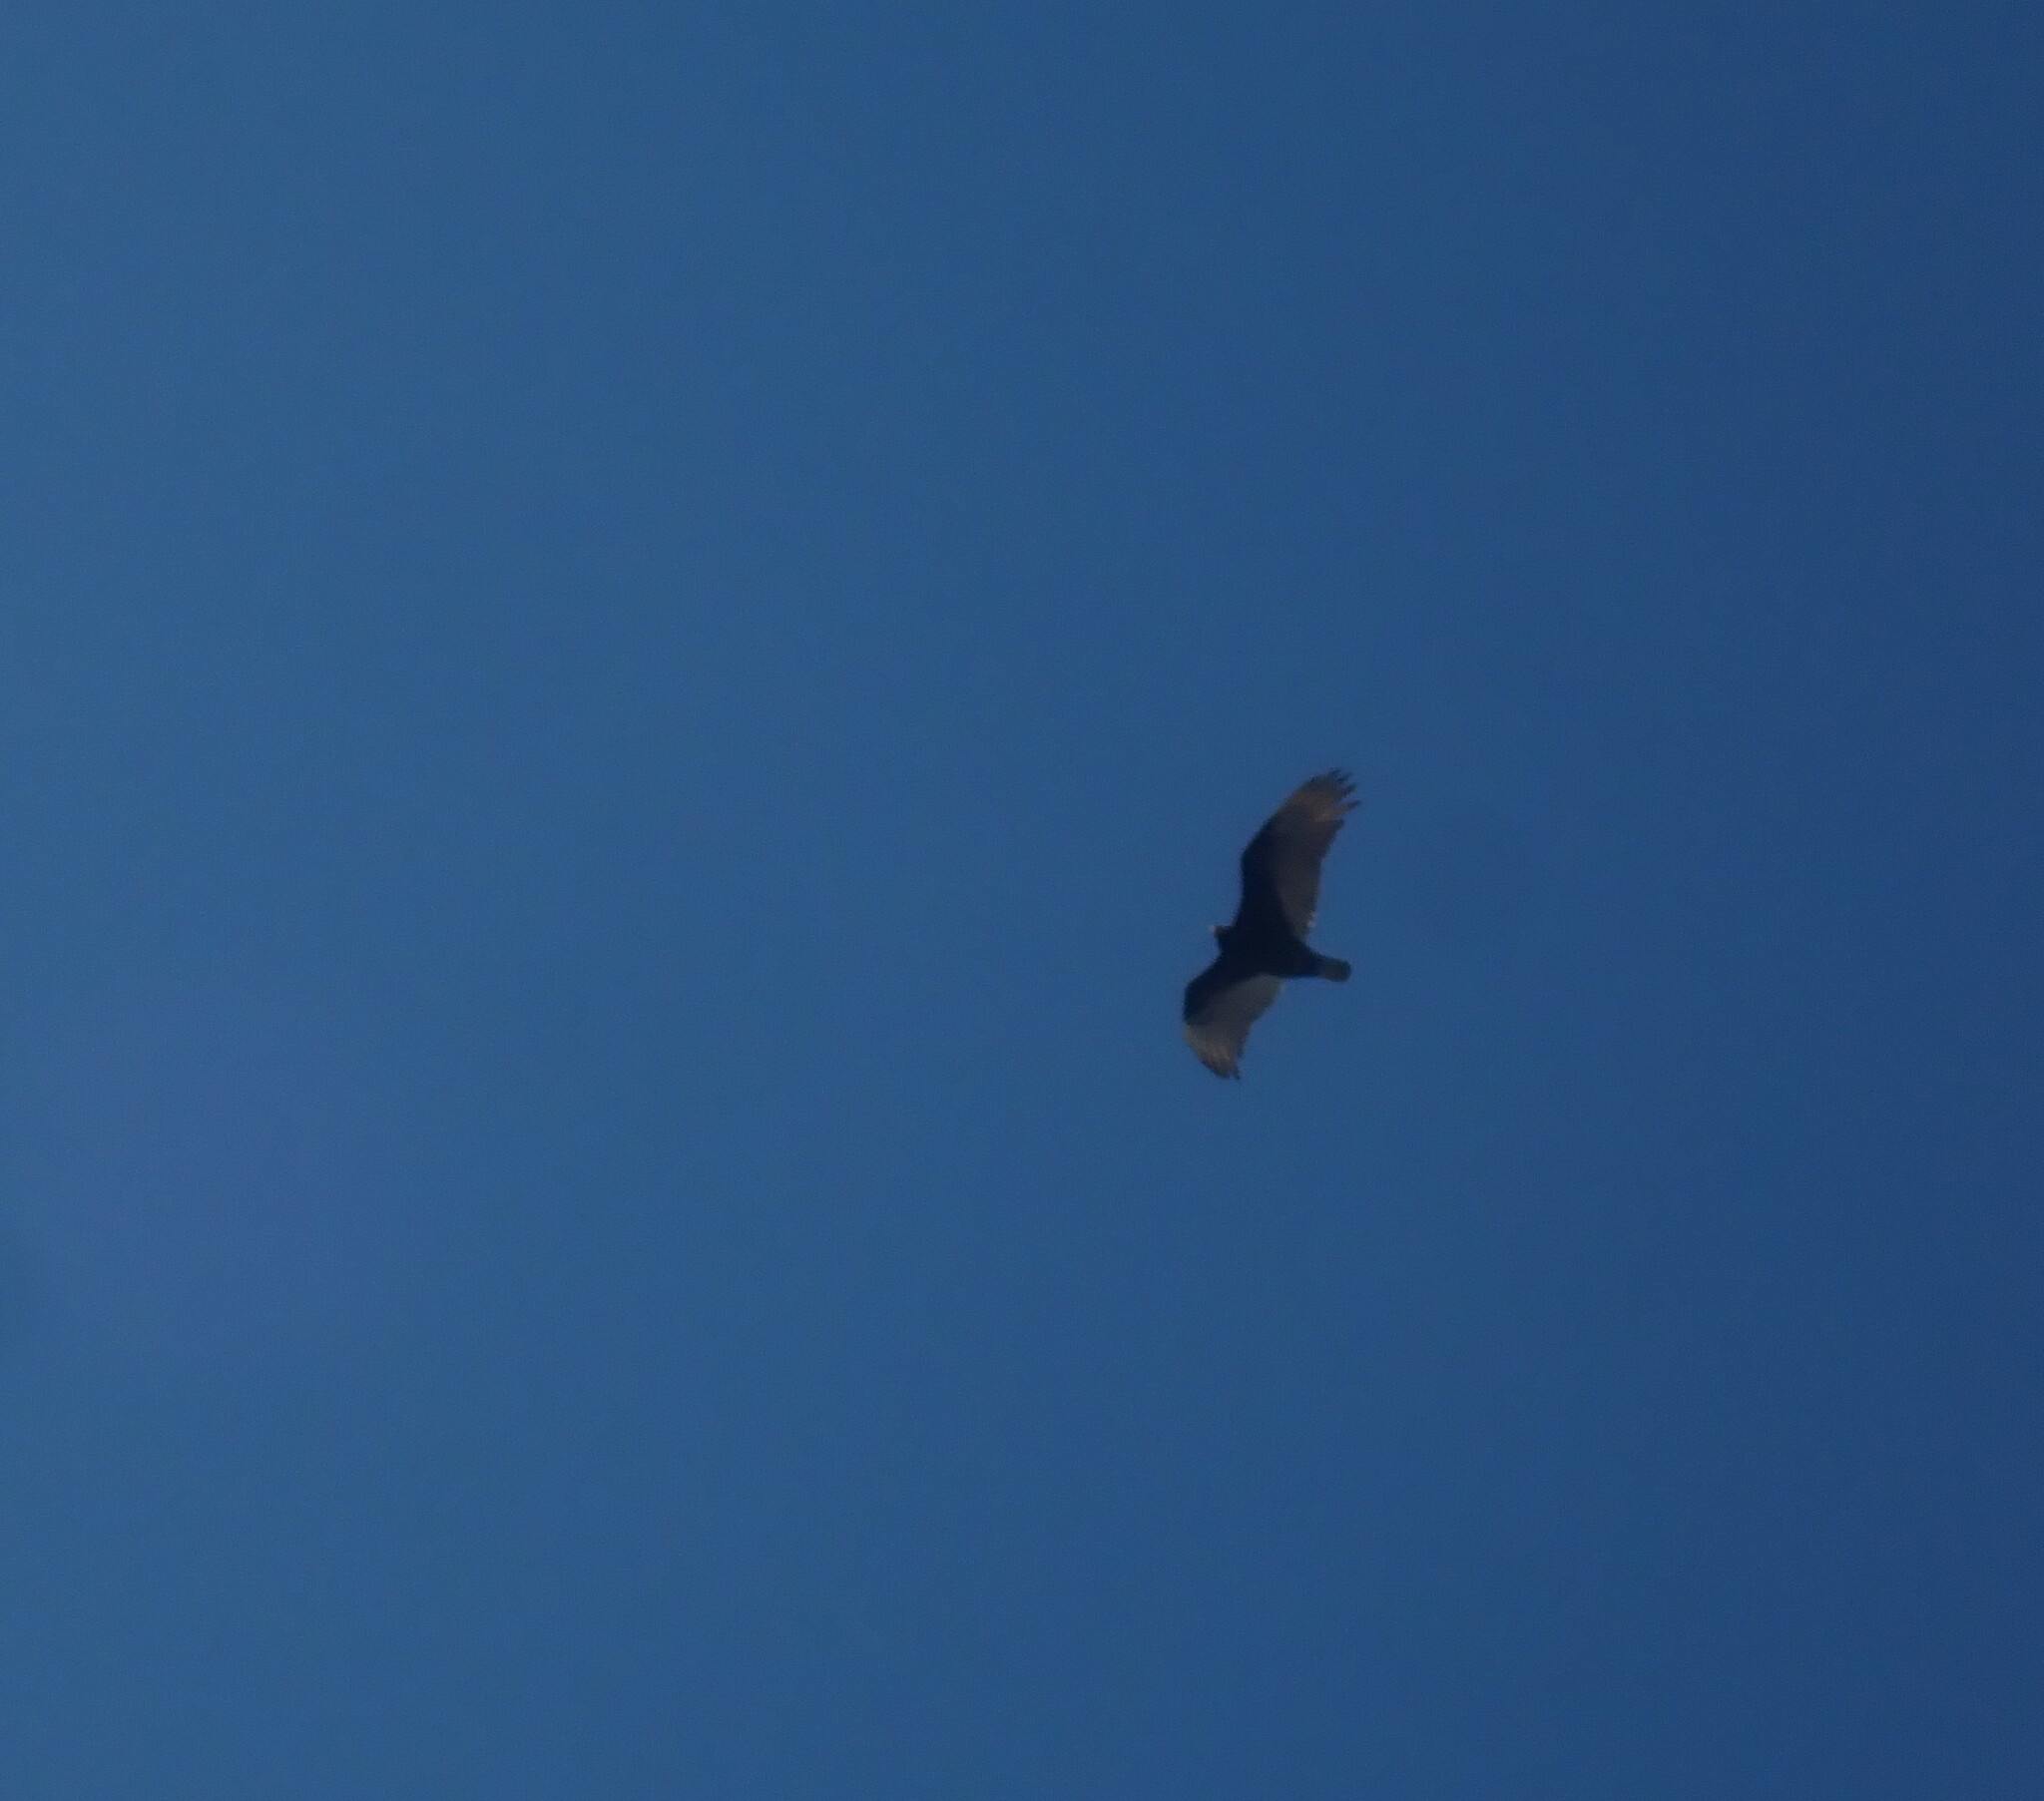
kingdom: Animalia
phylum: Chordata
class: Aves
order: Accipitriformes
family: Cathartidae
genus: Cathartes
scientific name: Cathartes aura
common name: Turkey vulture
